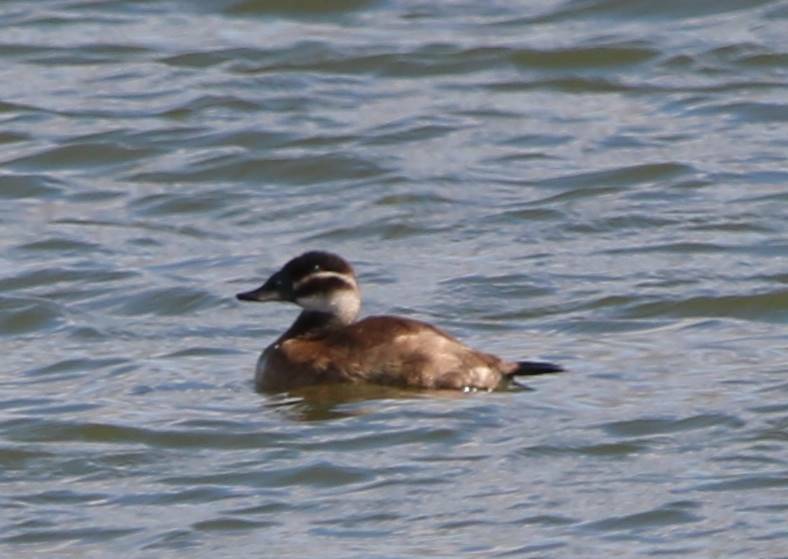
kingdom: Animalia
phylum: Chordata
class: Aves
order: Anseriformes
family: Anatidae
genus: Oxyura
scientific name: Oxyura leucocephala
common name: White-headed duck
